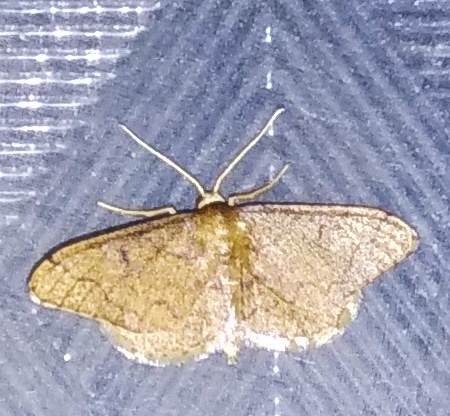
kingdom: Animalia
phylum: Arthropoda
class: Insecta
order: Lepidoptera
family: Geometridae
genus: Idaea
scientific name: Idaea amplipennis
